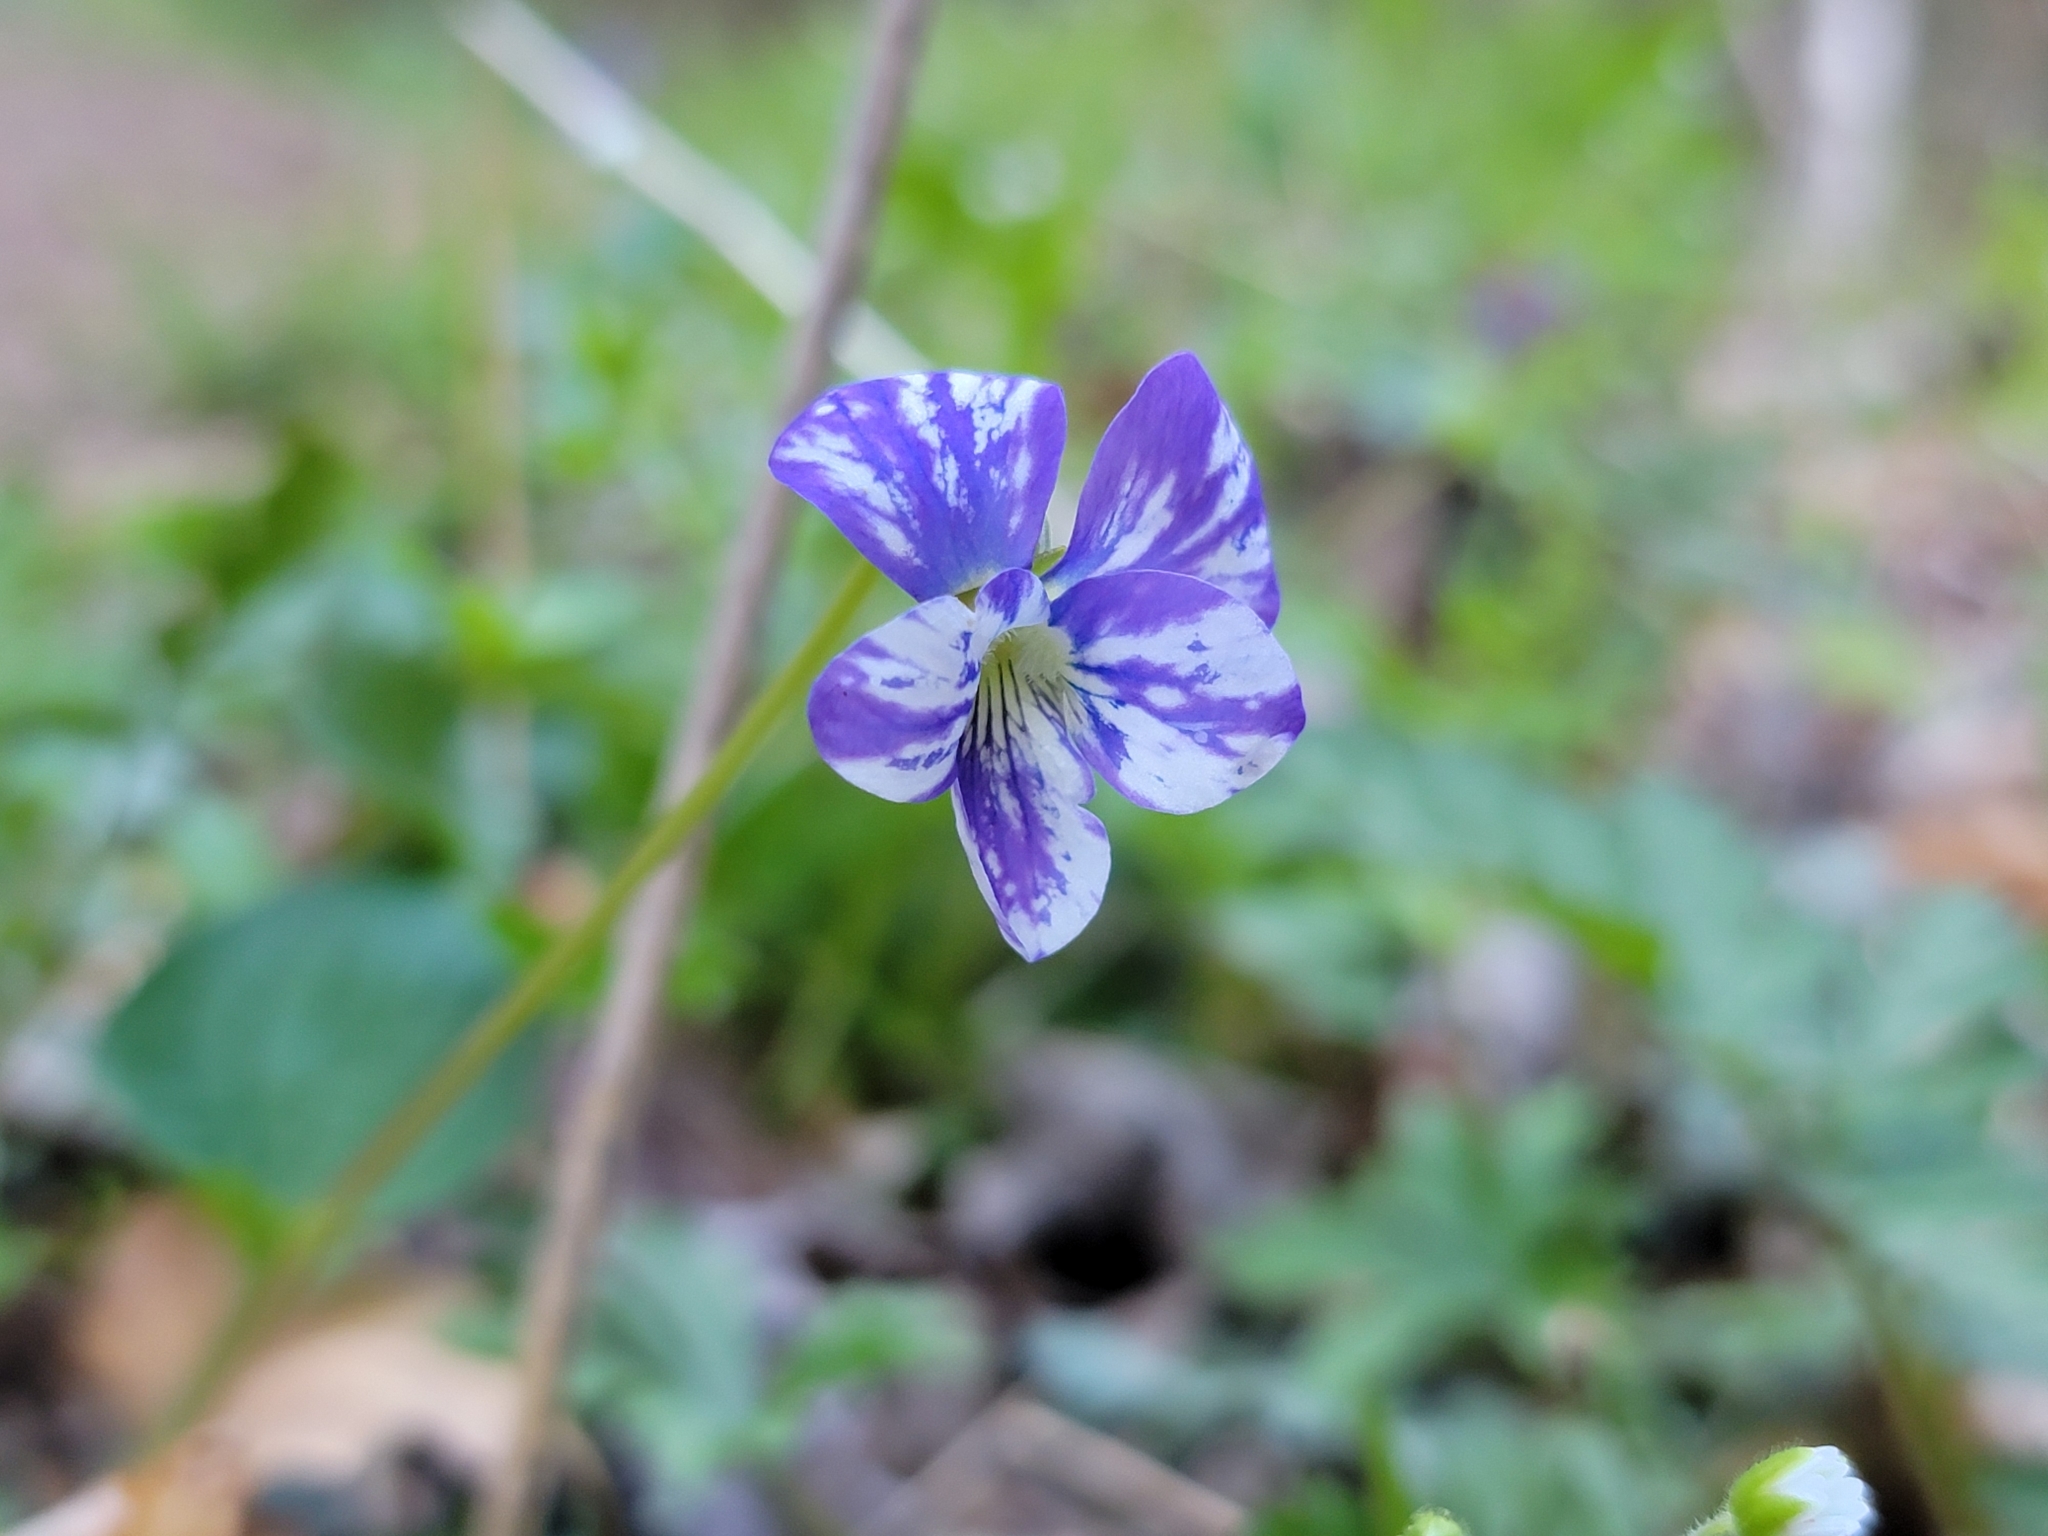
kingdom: Plantae
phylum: Tracheophyta
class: Magnoliopsida
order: Malpighiales
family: Violaceae
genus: Viola
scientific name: Viola sororia
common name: Dooryard violet
